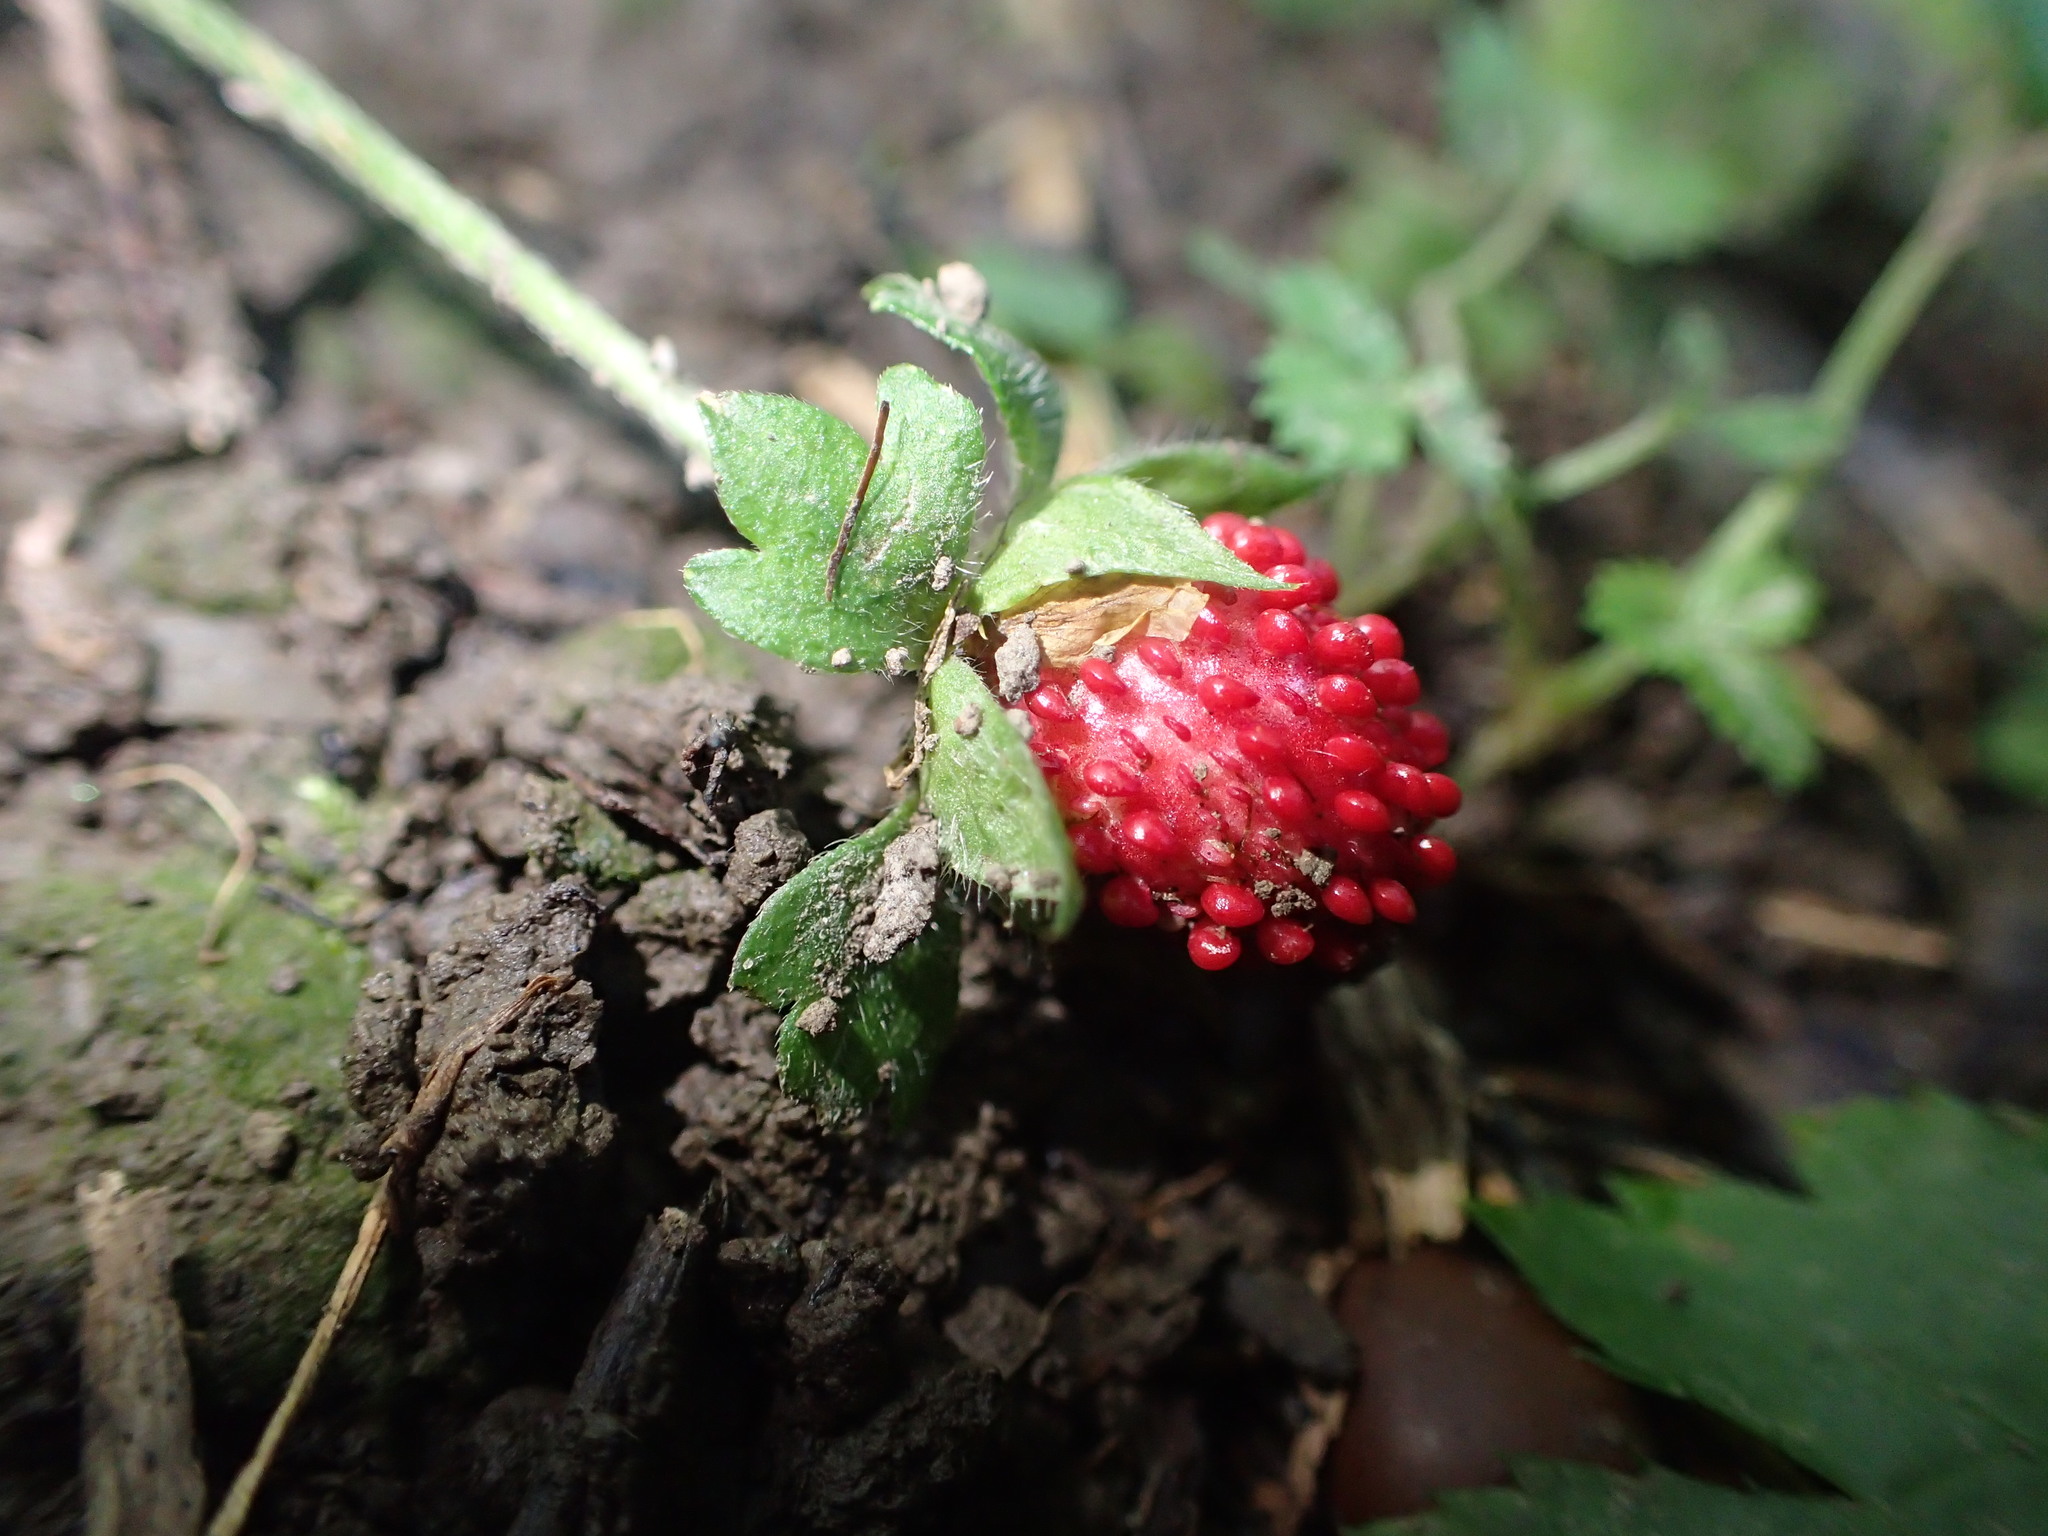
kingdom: Plantae
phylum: Tracheophyta
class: Magnoliopsida
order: Rosales
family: Rosaceae
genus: Potentilla
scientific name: Potentilla indica
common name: Yellow-flowered strawberry
